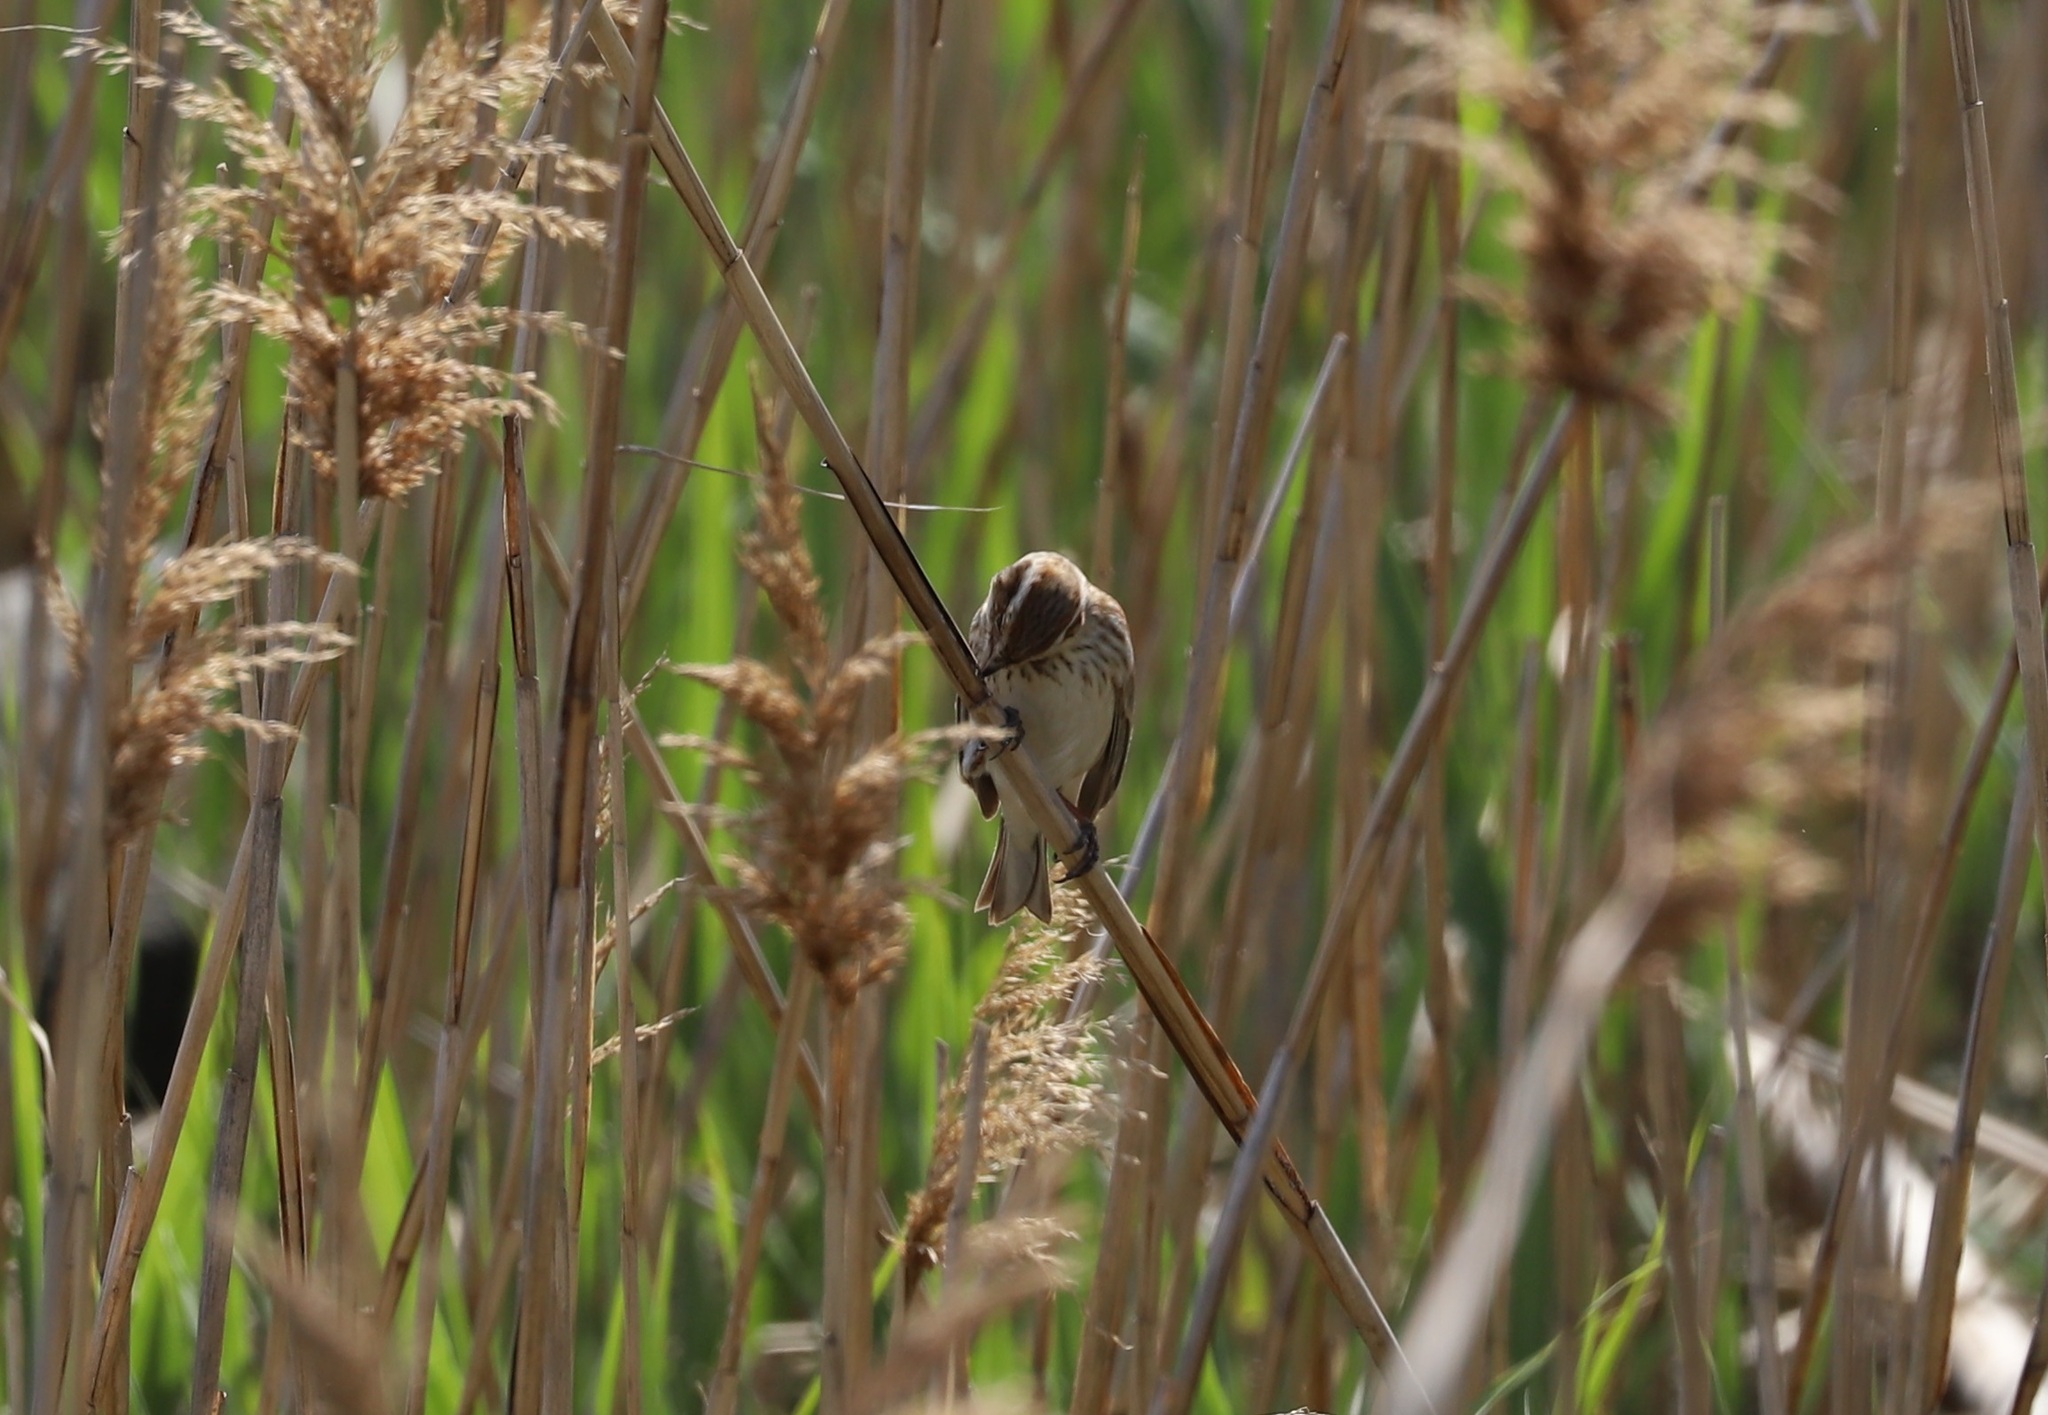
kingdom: Animalia
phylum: Chordata
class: Aves
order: Passeriformes
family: Emberizidae
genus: Emberiza
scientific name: Emberiza schoeniclus
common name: Reed bunting
